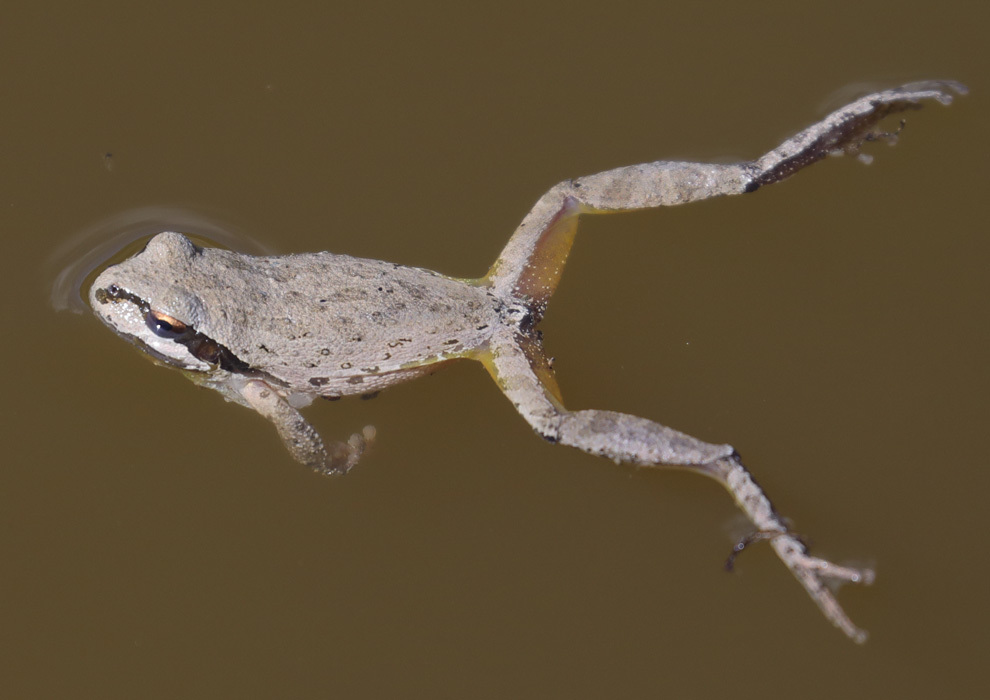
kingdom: Animalia
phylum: Chordata
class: Amphibia
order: Anura
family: Hylidae
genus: Pseudacris
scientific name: Pseudacris regilla
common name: Pacific chorus frog
